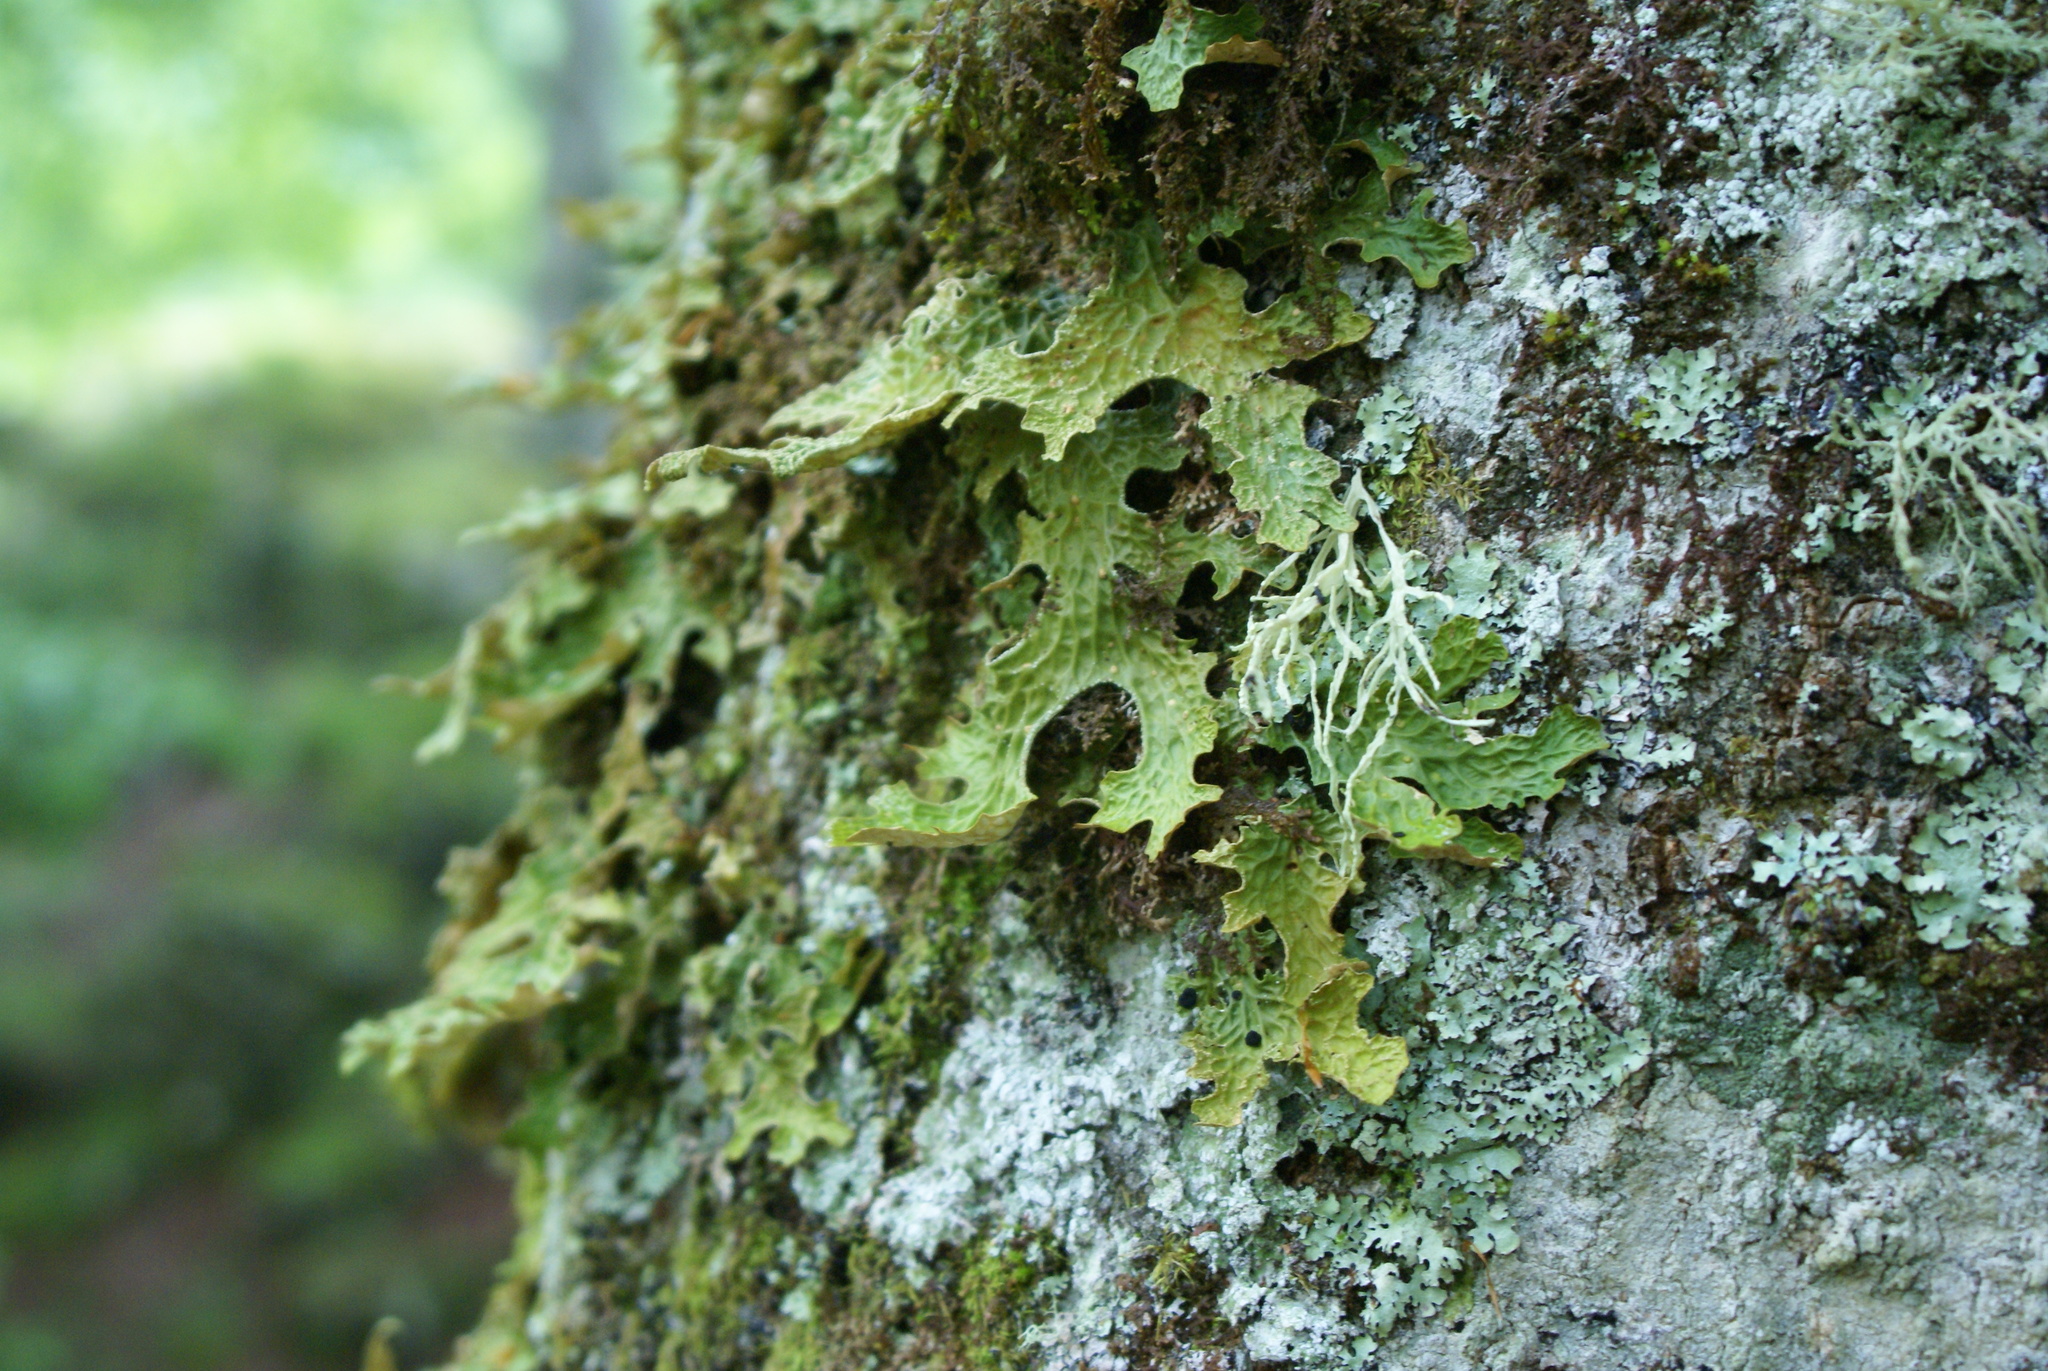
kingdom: Fungi
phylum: Ascomycota
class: Lecanoromycetes
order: Peltigerales
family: Lobariaceae
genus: Lobaria
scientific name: Lobaria pulmonaria
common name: Lungwort
